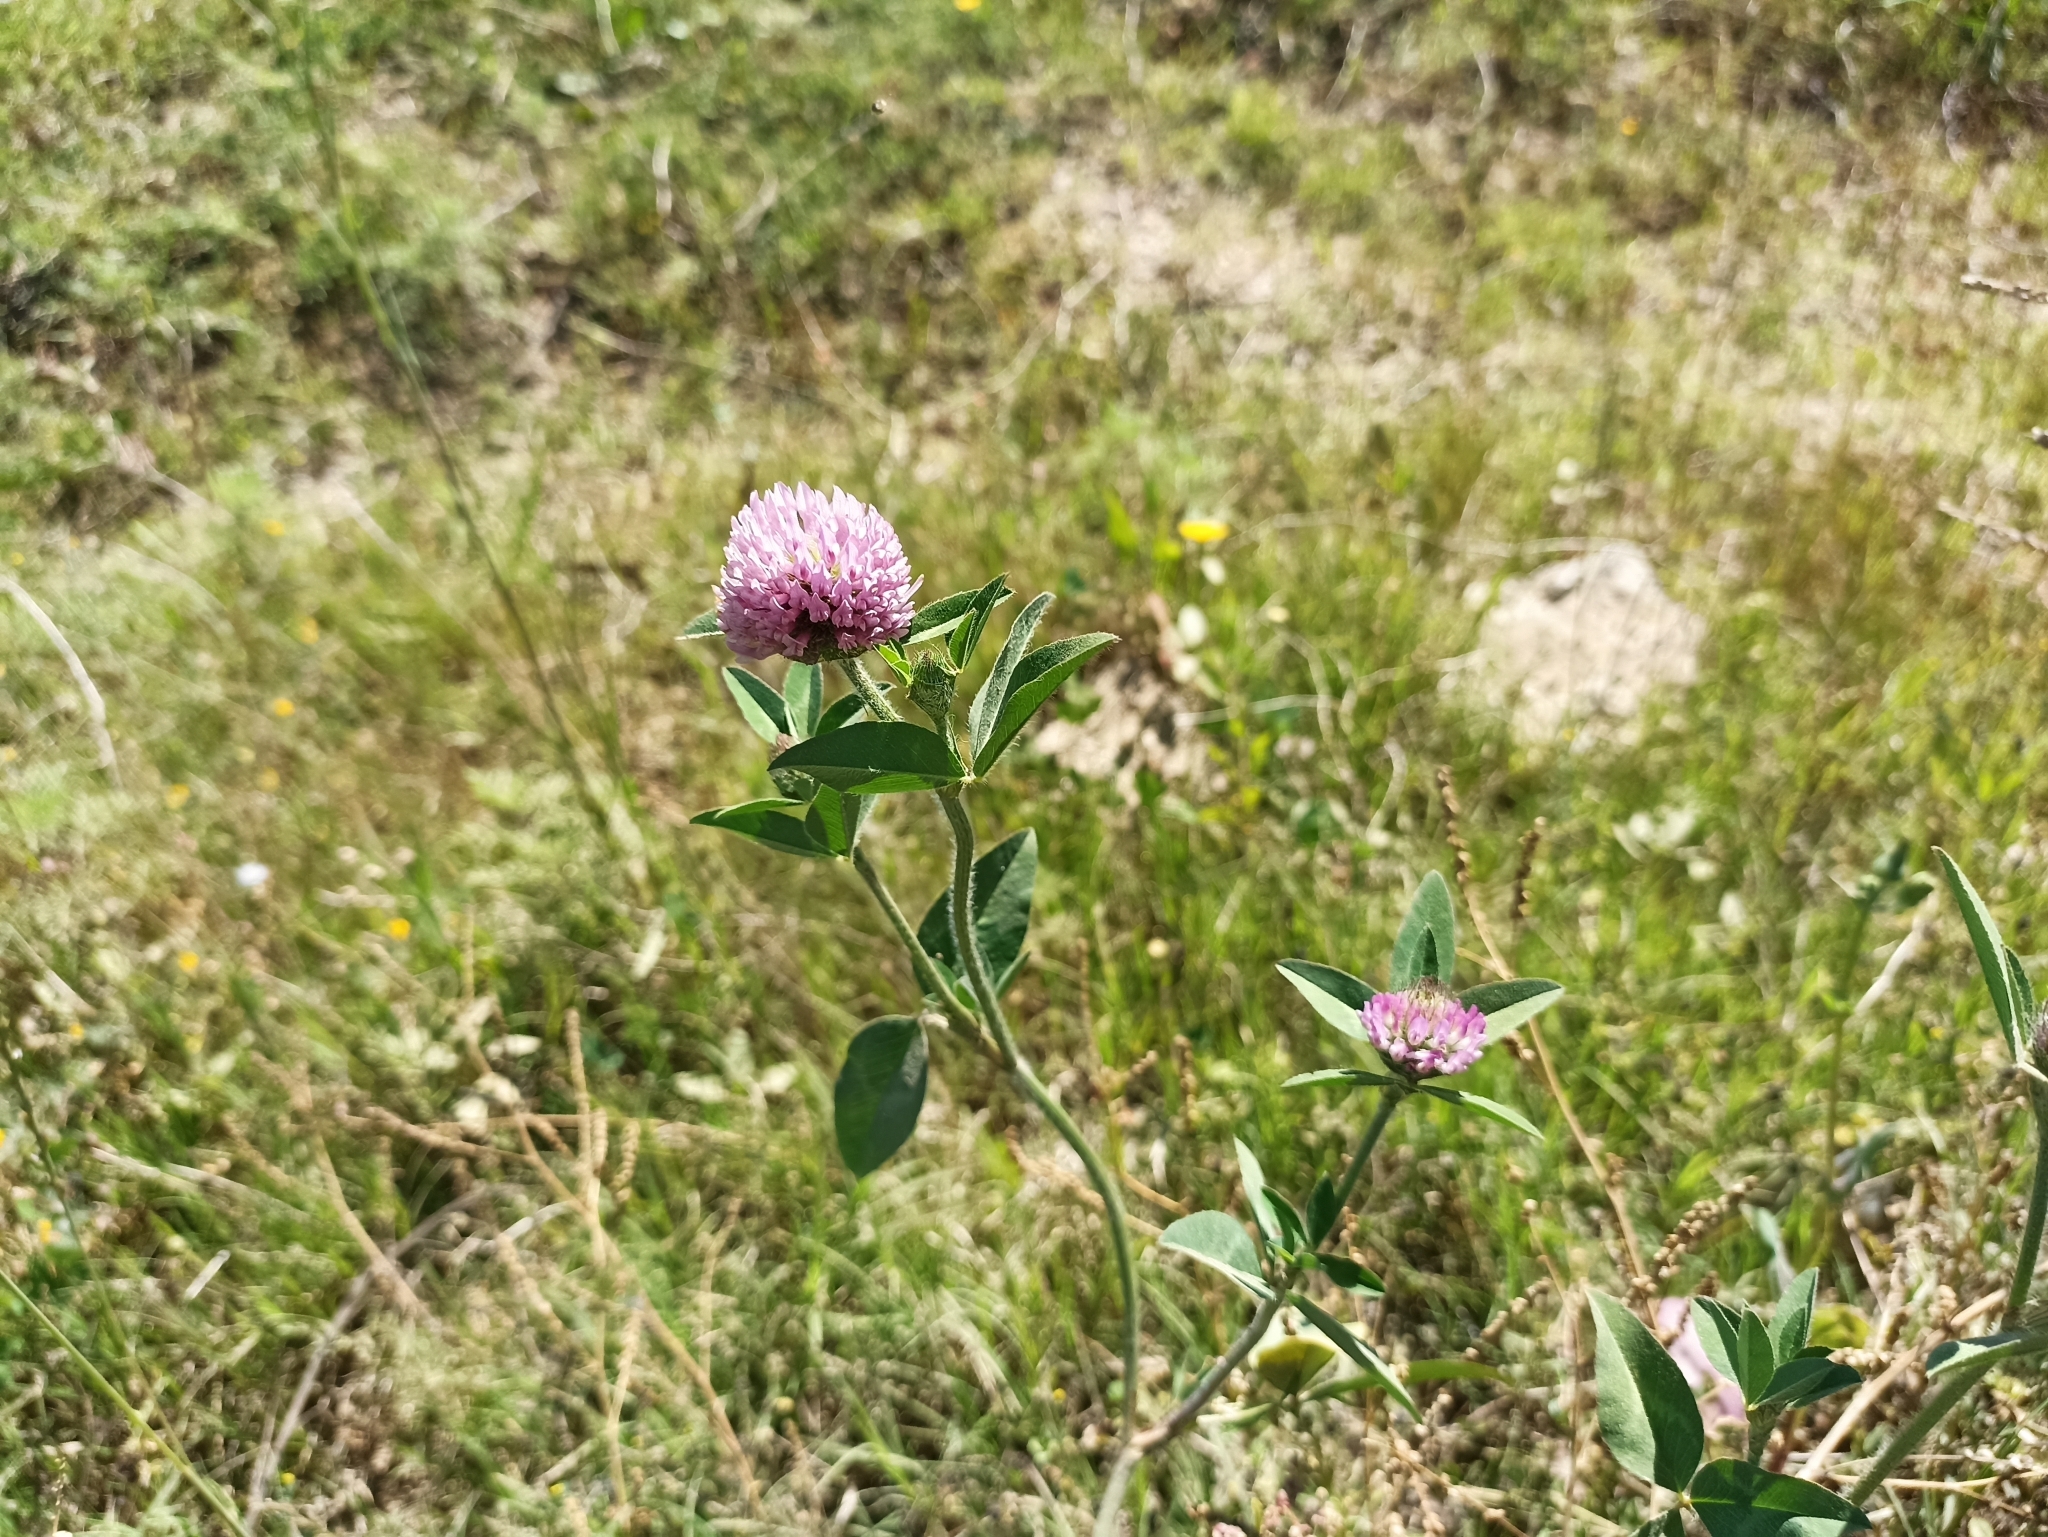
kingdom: Plantae
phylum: Tracheophyta
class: Magnoliopsida
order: Fabales
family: Fabaceae
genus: Trifolium
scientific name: Trifolium pratense
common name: Red clover
